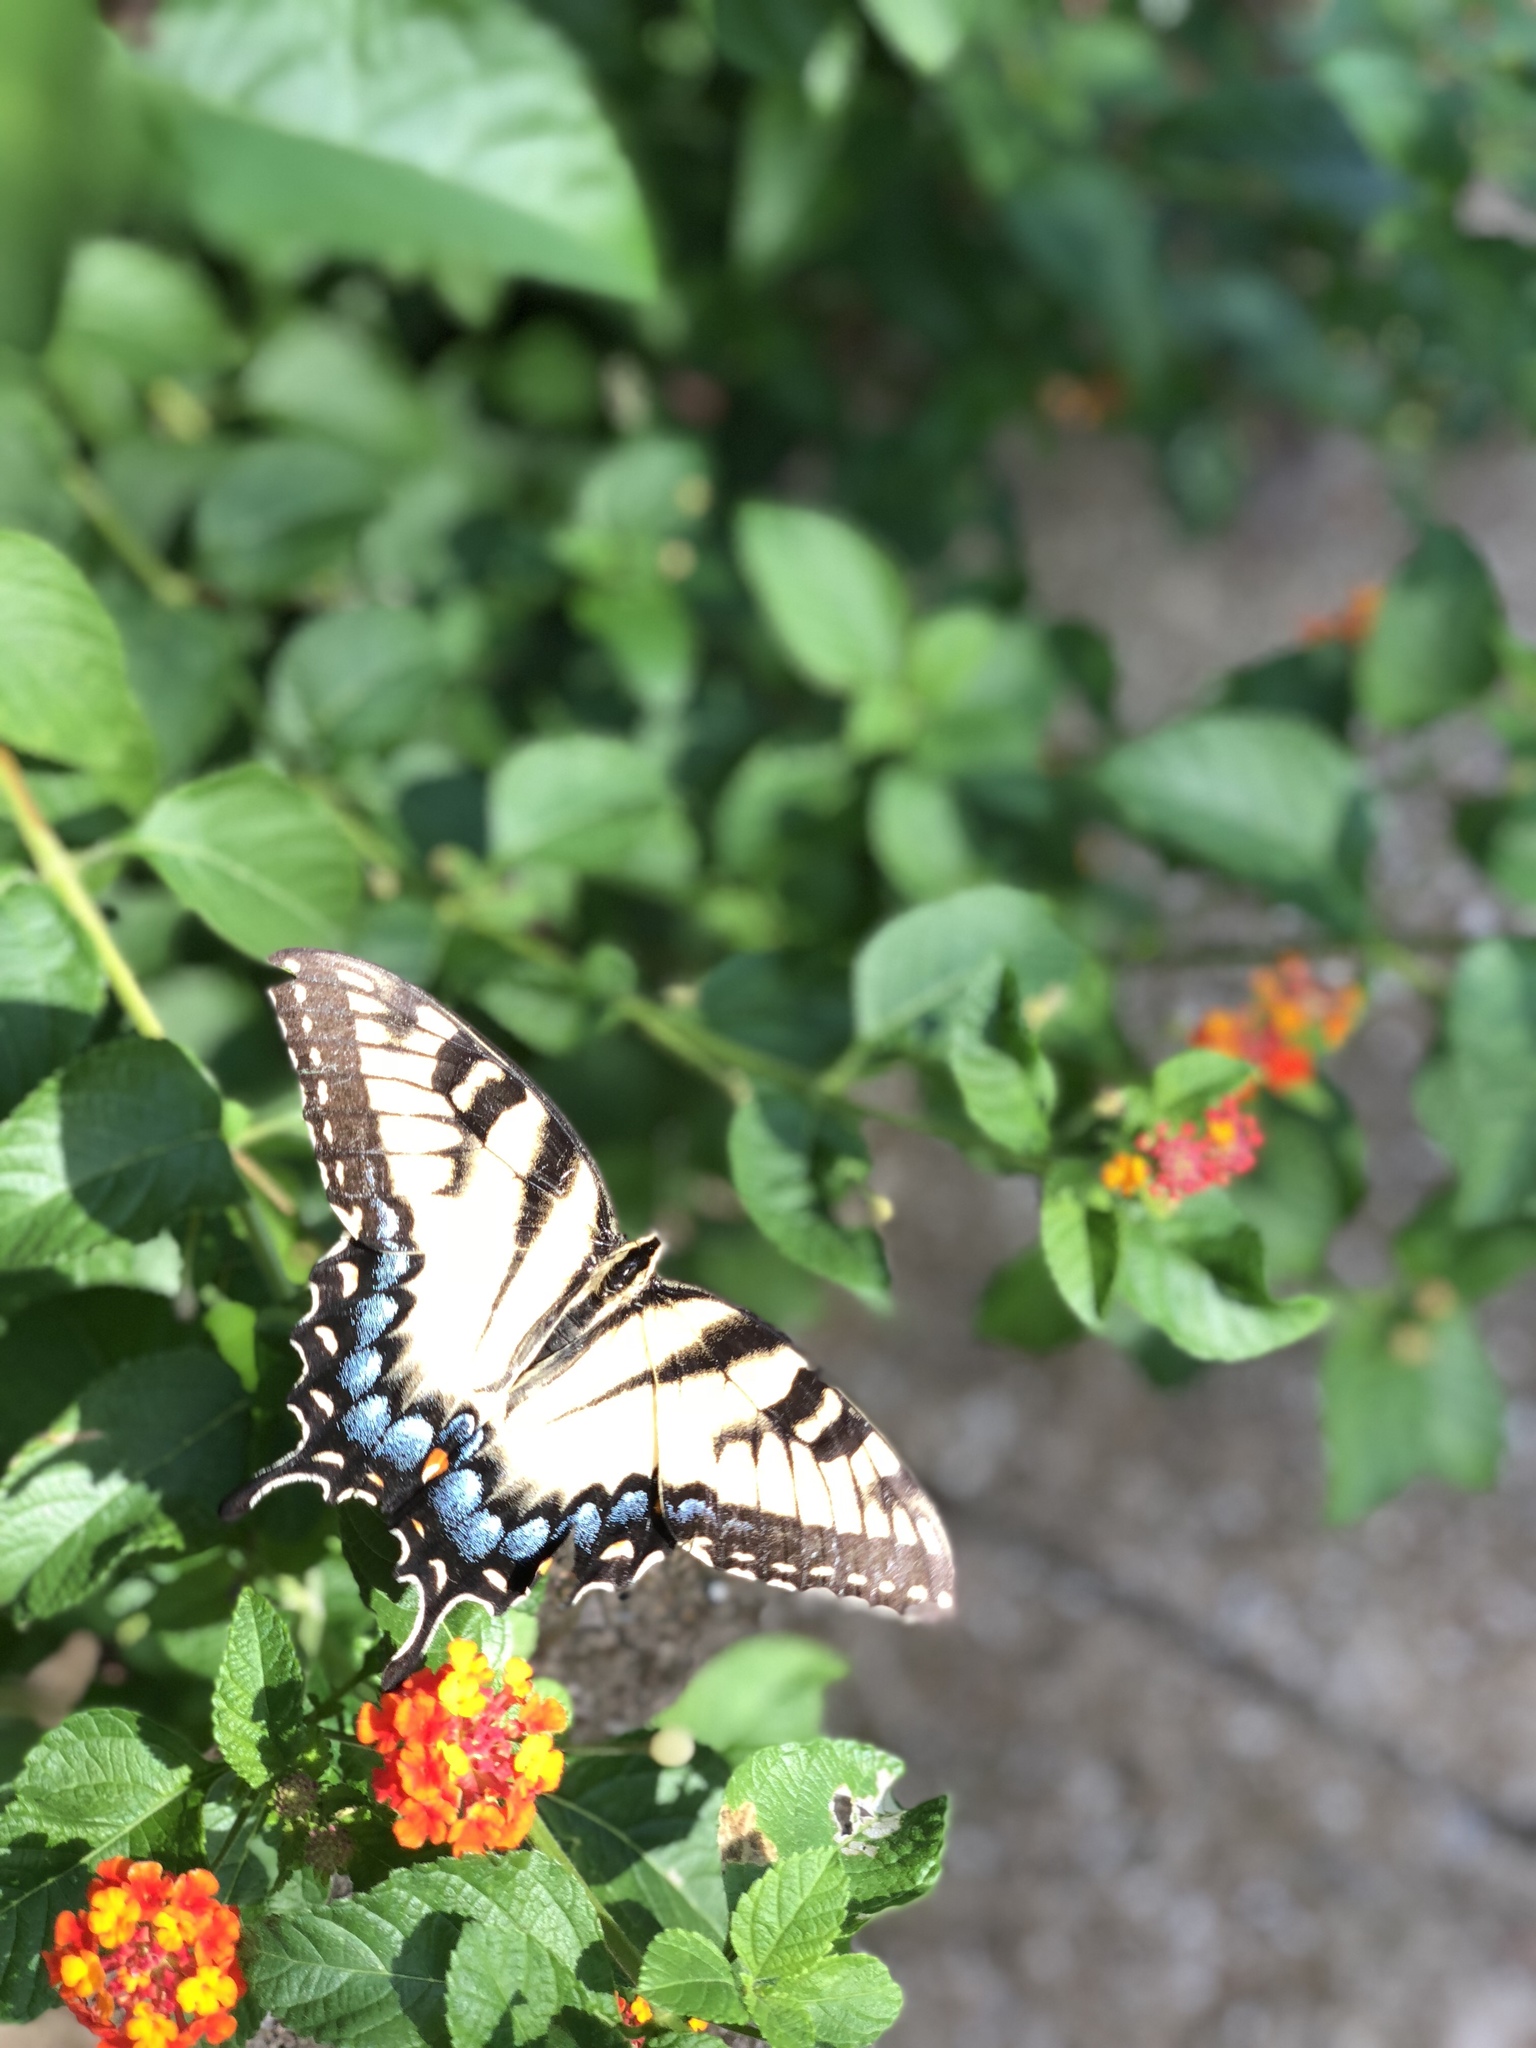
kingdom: Animalia
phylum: Arthropoda
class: Insecta
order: Lepidoptera
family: Papilionidae
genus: Papilio
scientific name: Papilio glaucus
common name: Tiger swallowtail
